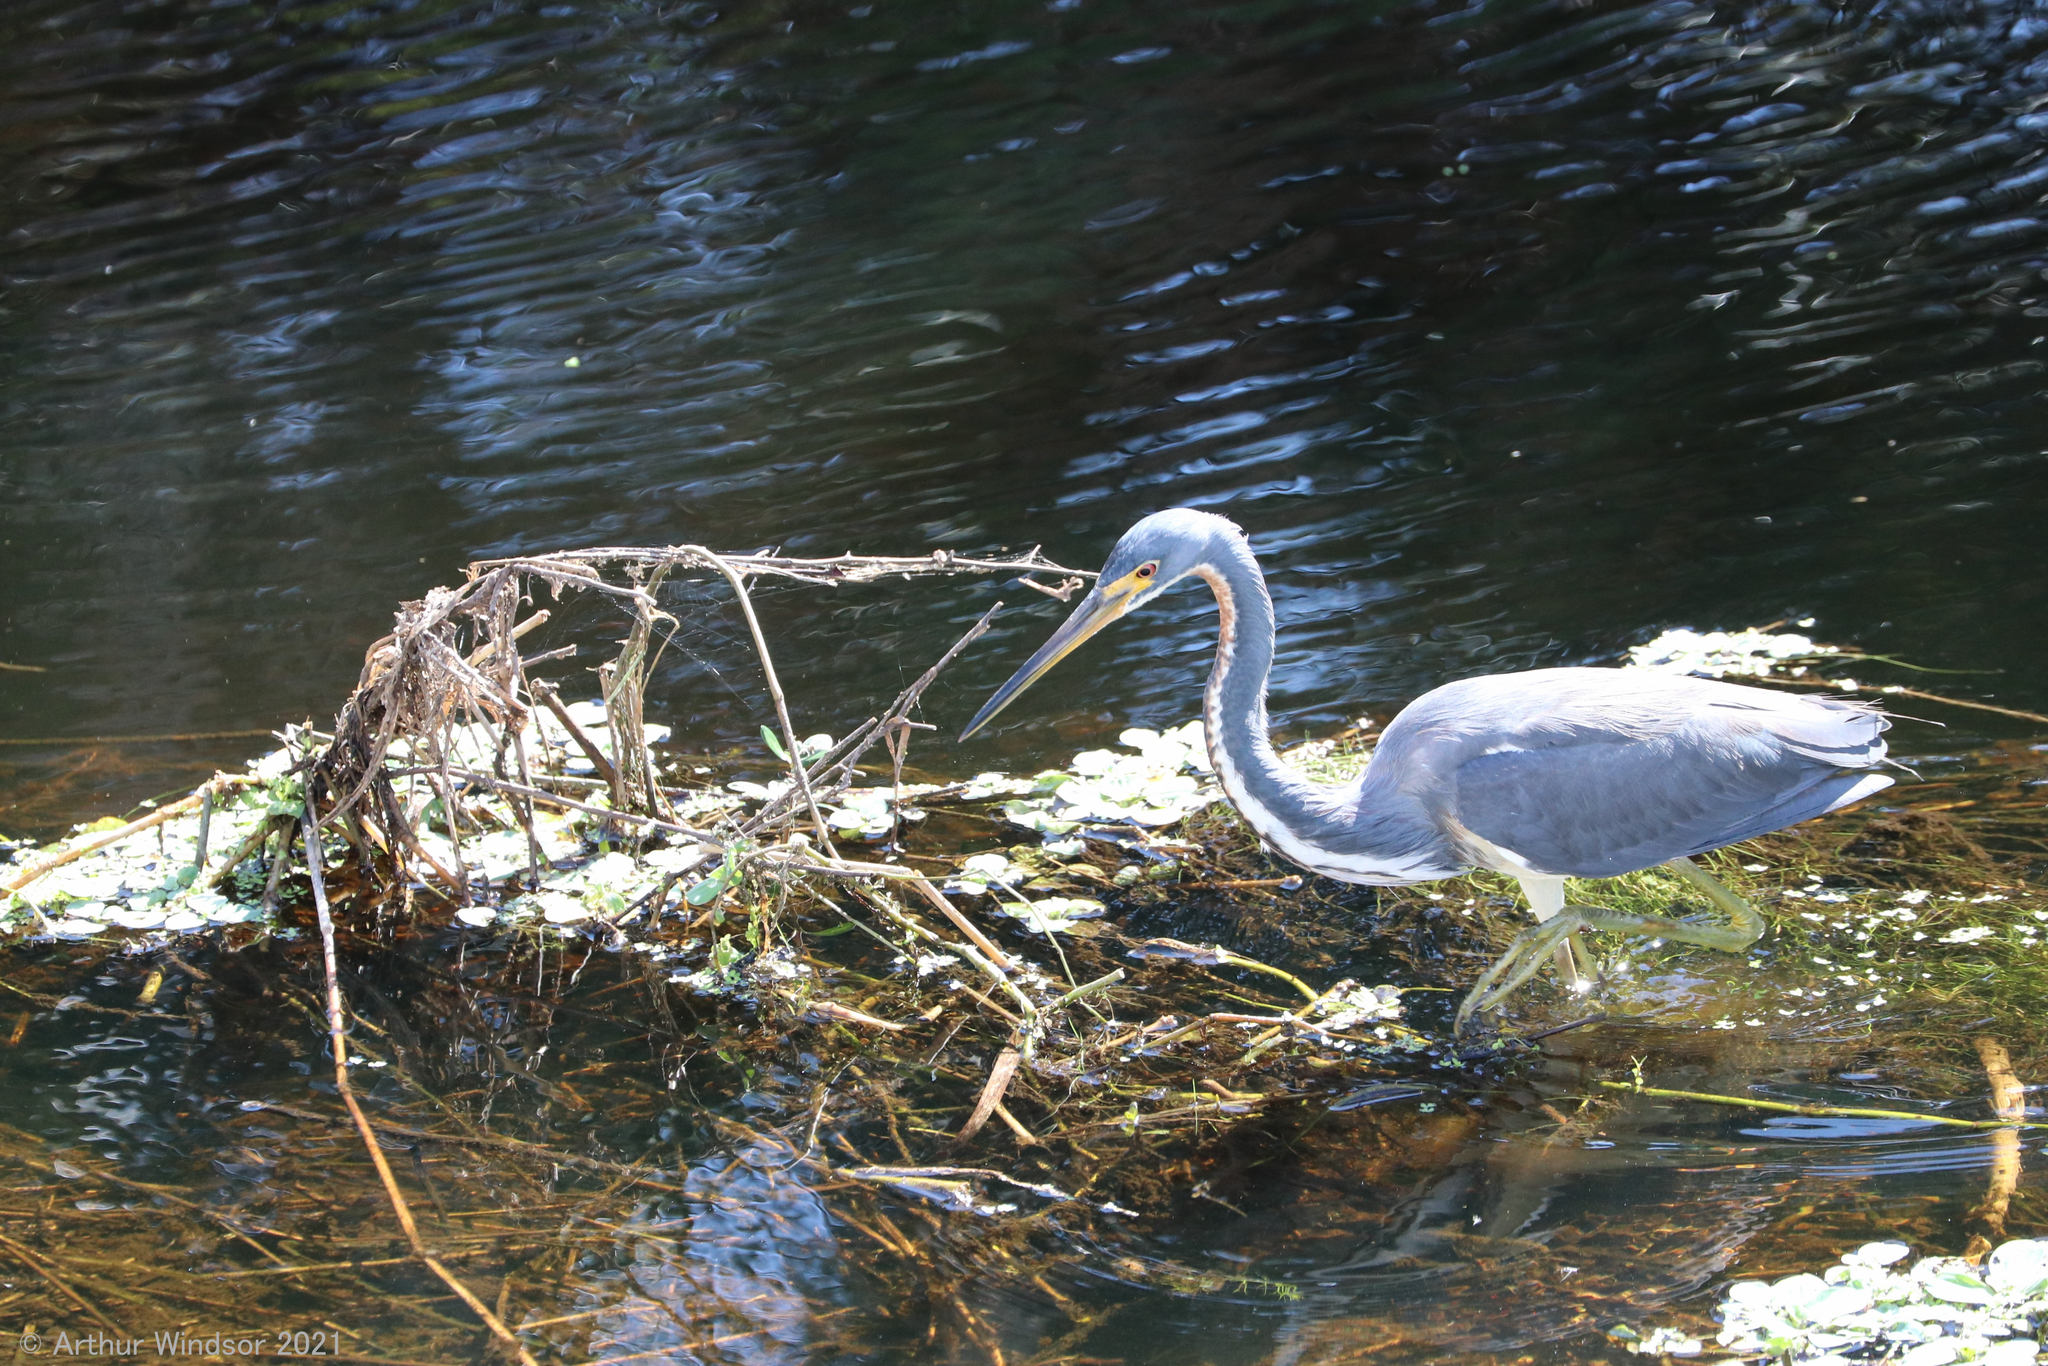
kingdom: Animalia
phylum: Chordata
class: Aves
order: Pelecaniformes
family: Ardeidae
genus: Egretta
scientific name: Egretta tricolor
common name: Tricolored heron
